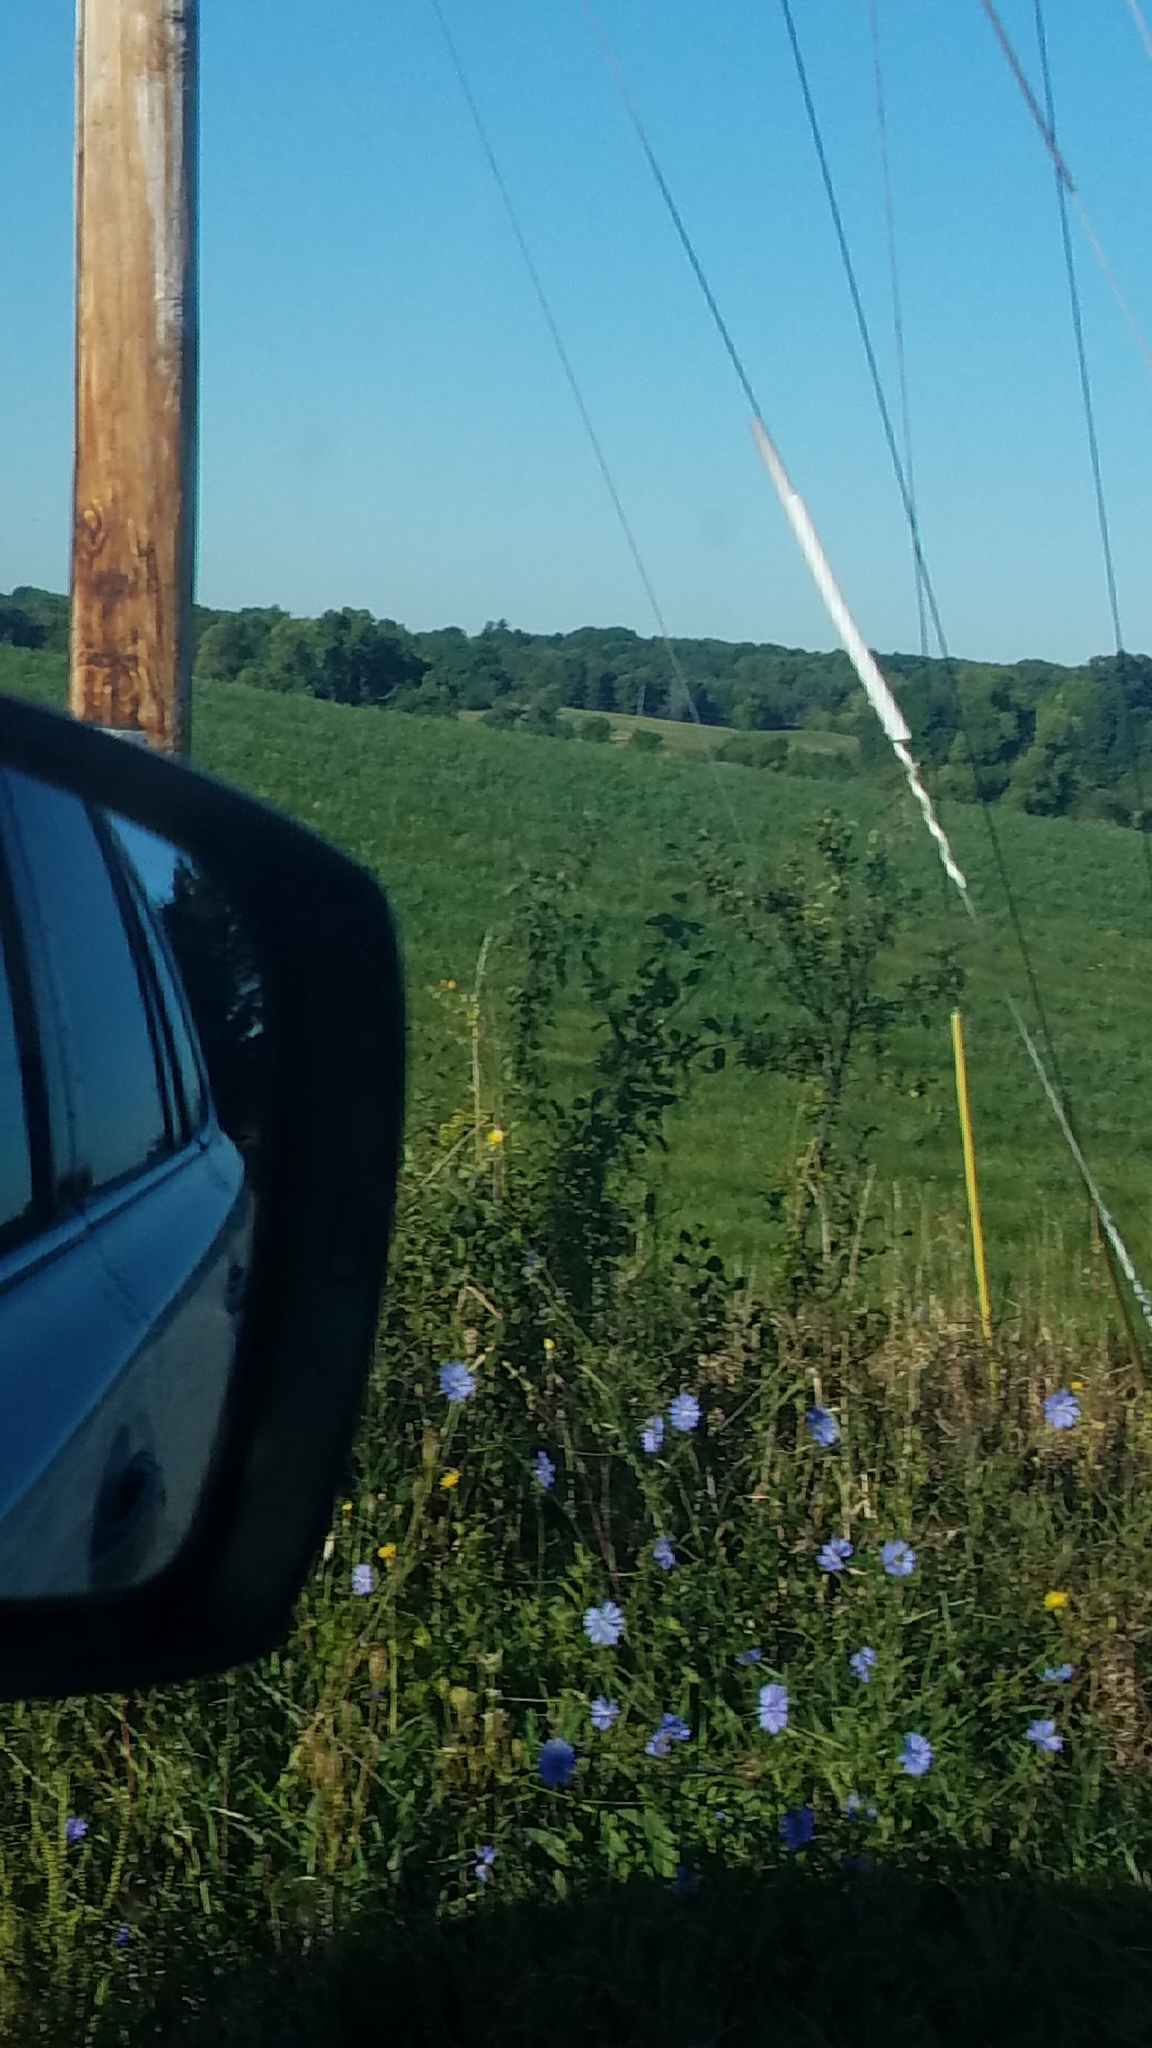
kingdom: Plantae
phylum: Tracheophyta
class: Magnoliopsida
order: Asterales
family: Asteraceae
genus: Cichorium
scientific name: Cichorium intybus
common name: Chicory
